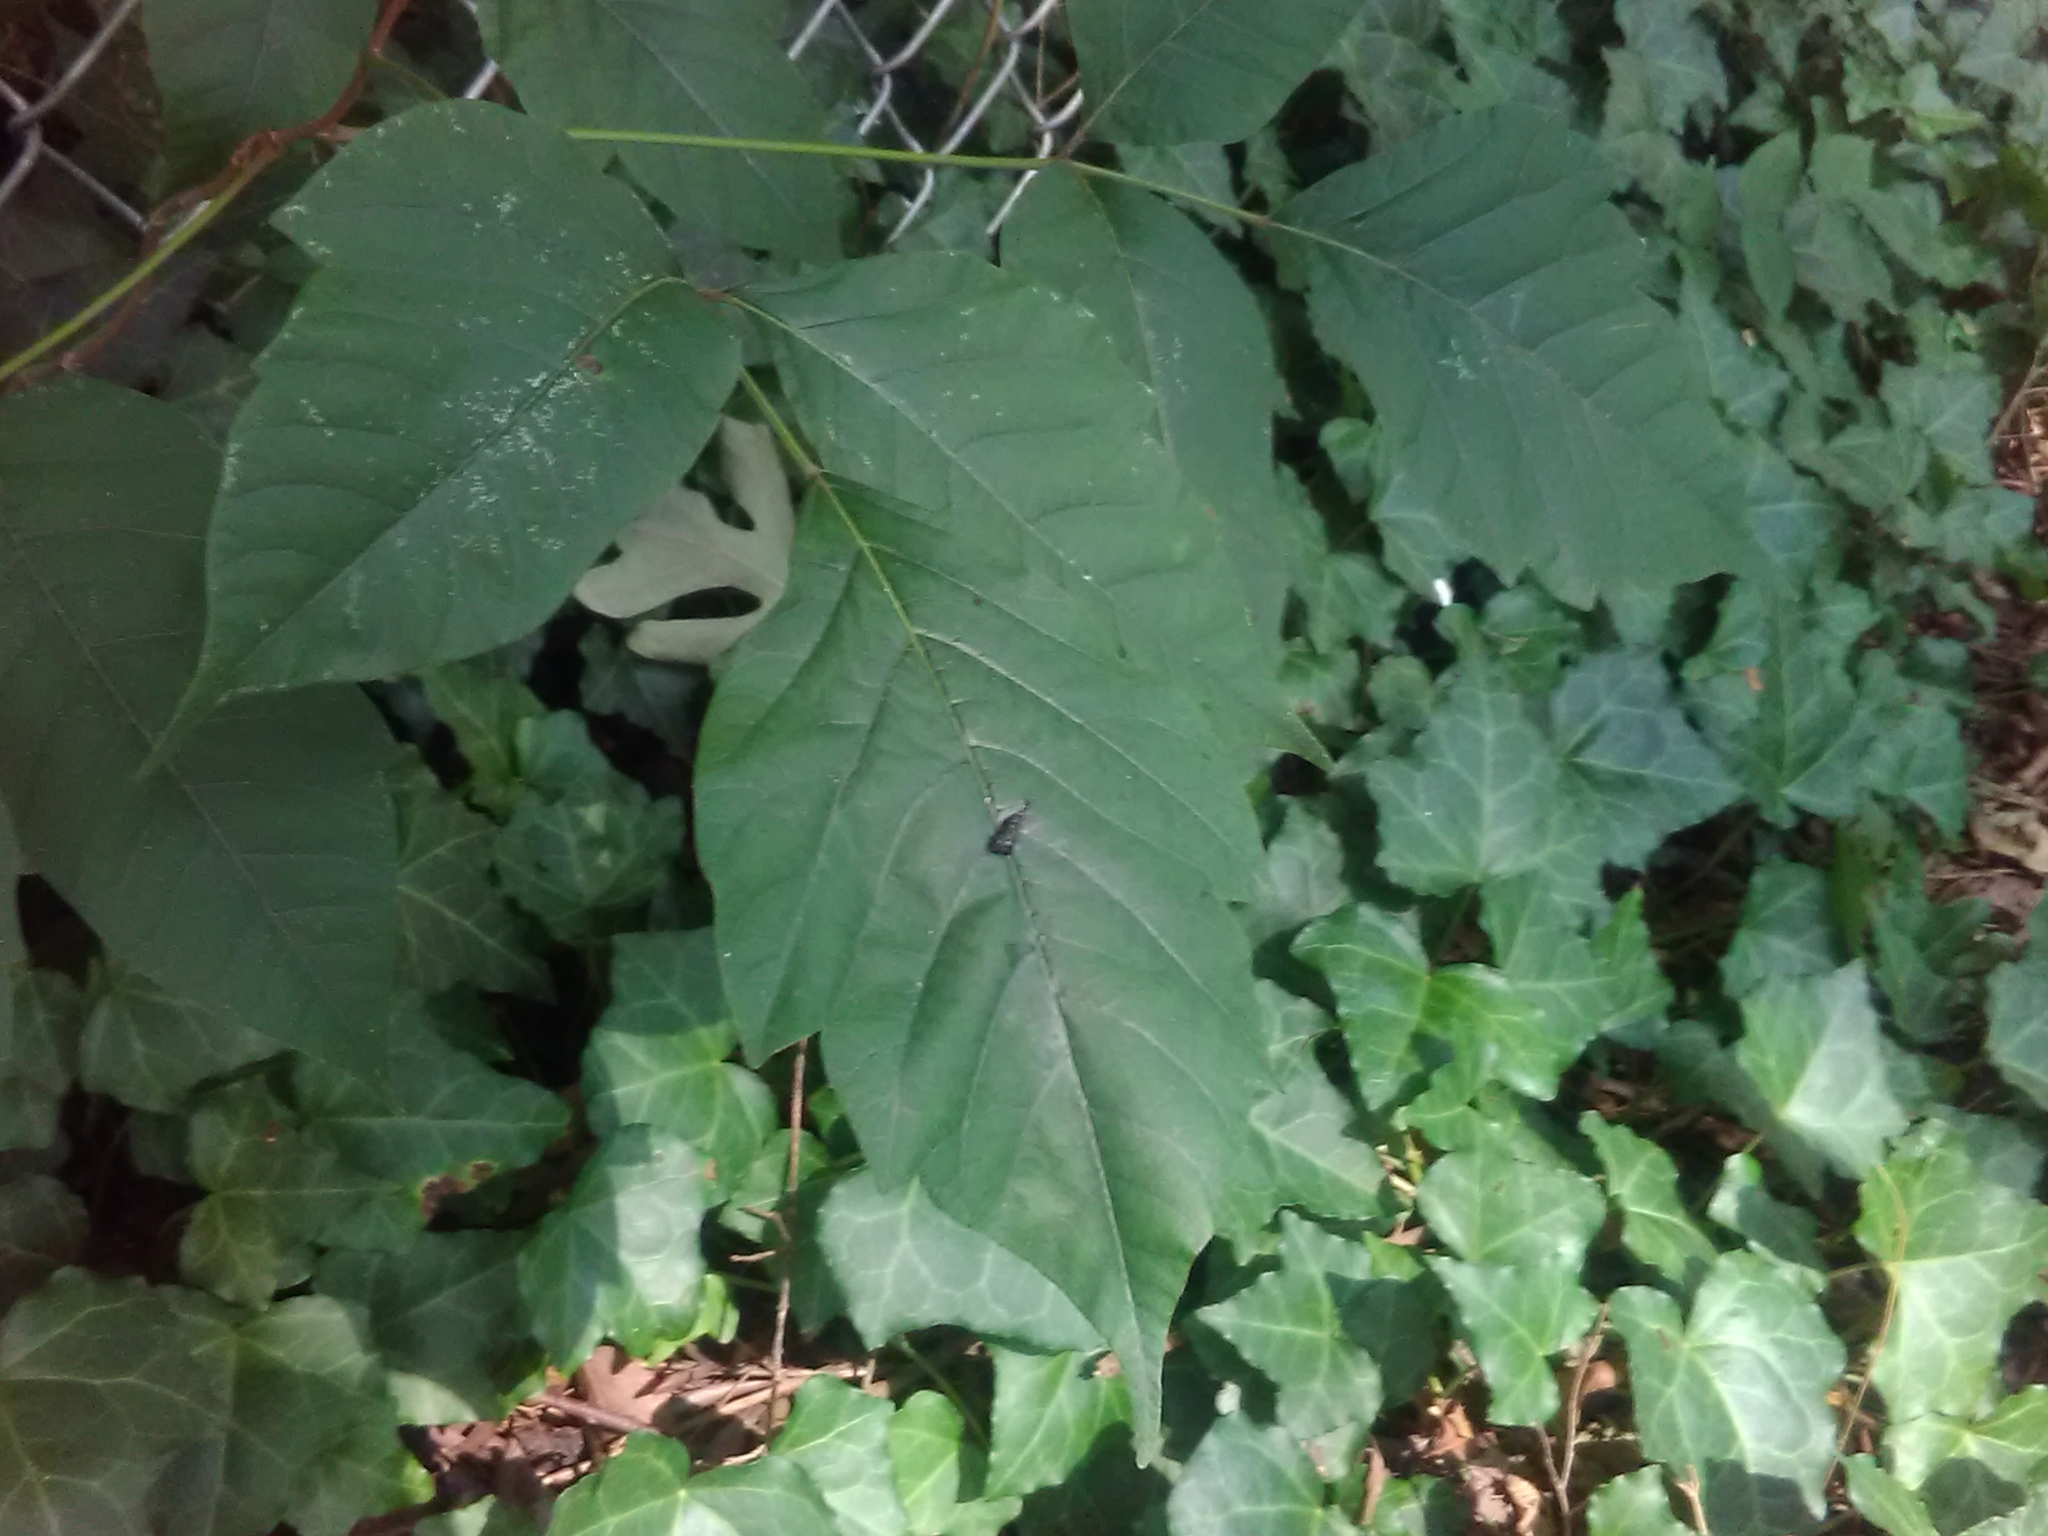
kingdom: Plantae
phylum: Tracheophyta
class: Magnoliopsida
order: Sapindales
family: Anacardiaceae
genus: Toxicodendron
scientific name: Toxicodendron radicans
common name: Poison ivy
